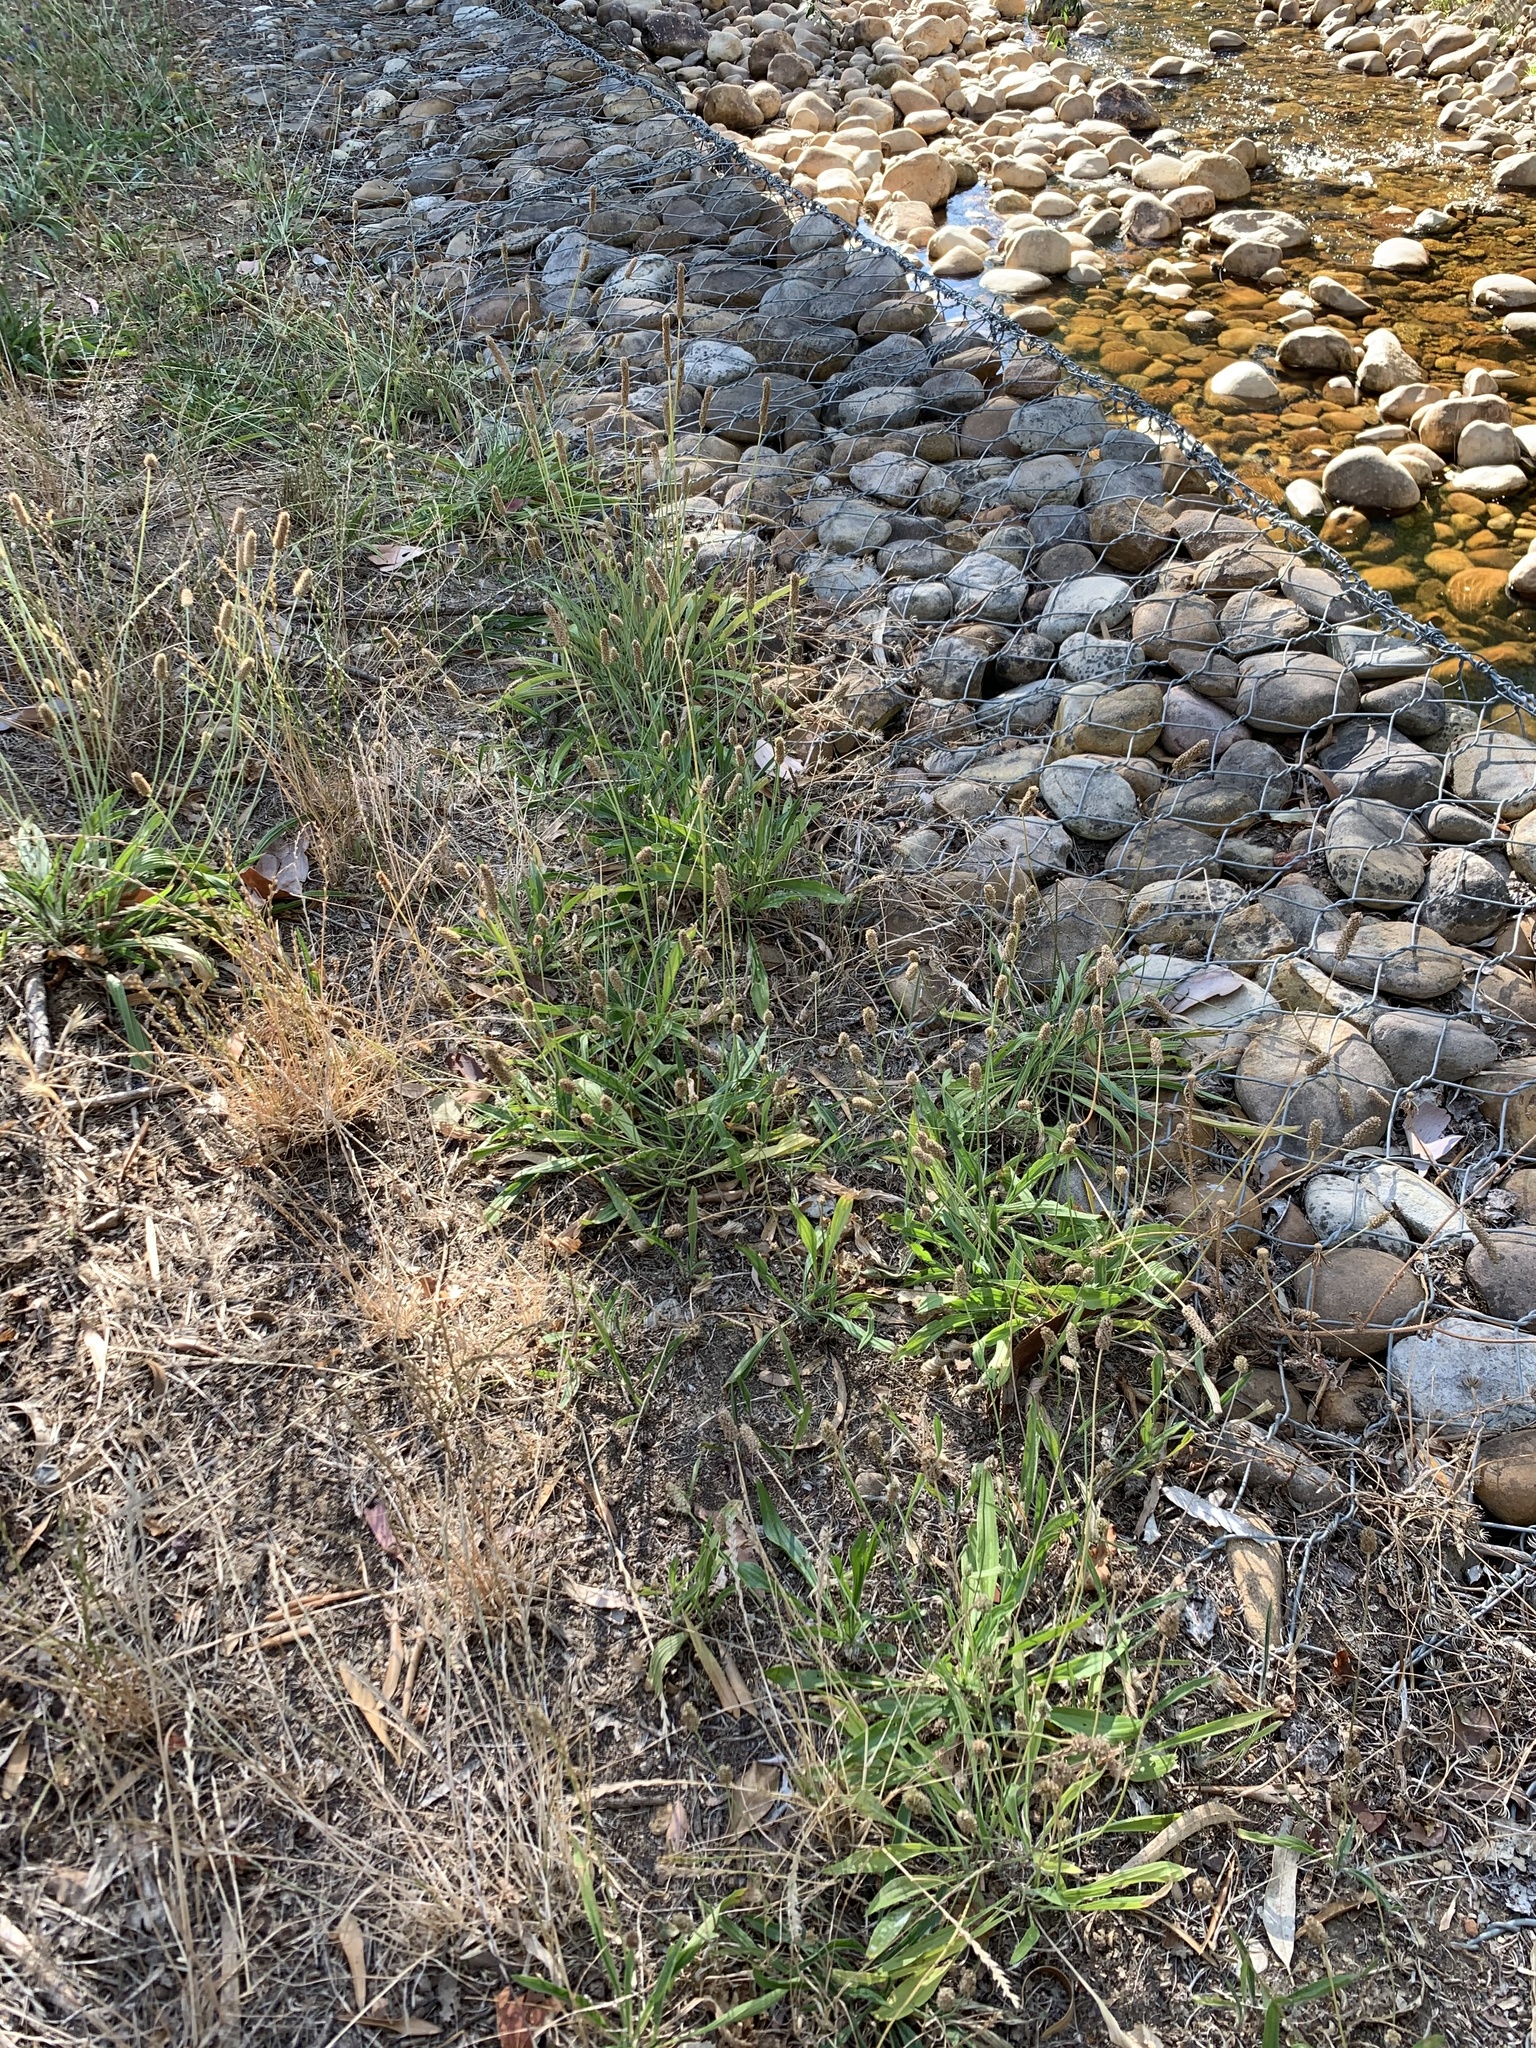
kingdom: Plantae
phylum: Tracheophyta
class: Magnoliopsida
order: Lamiales
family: Plantaginaceae
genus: Plantago
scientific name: Plantago lanceolata
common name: Ribwort plantain
